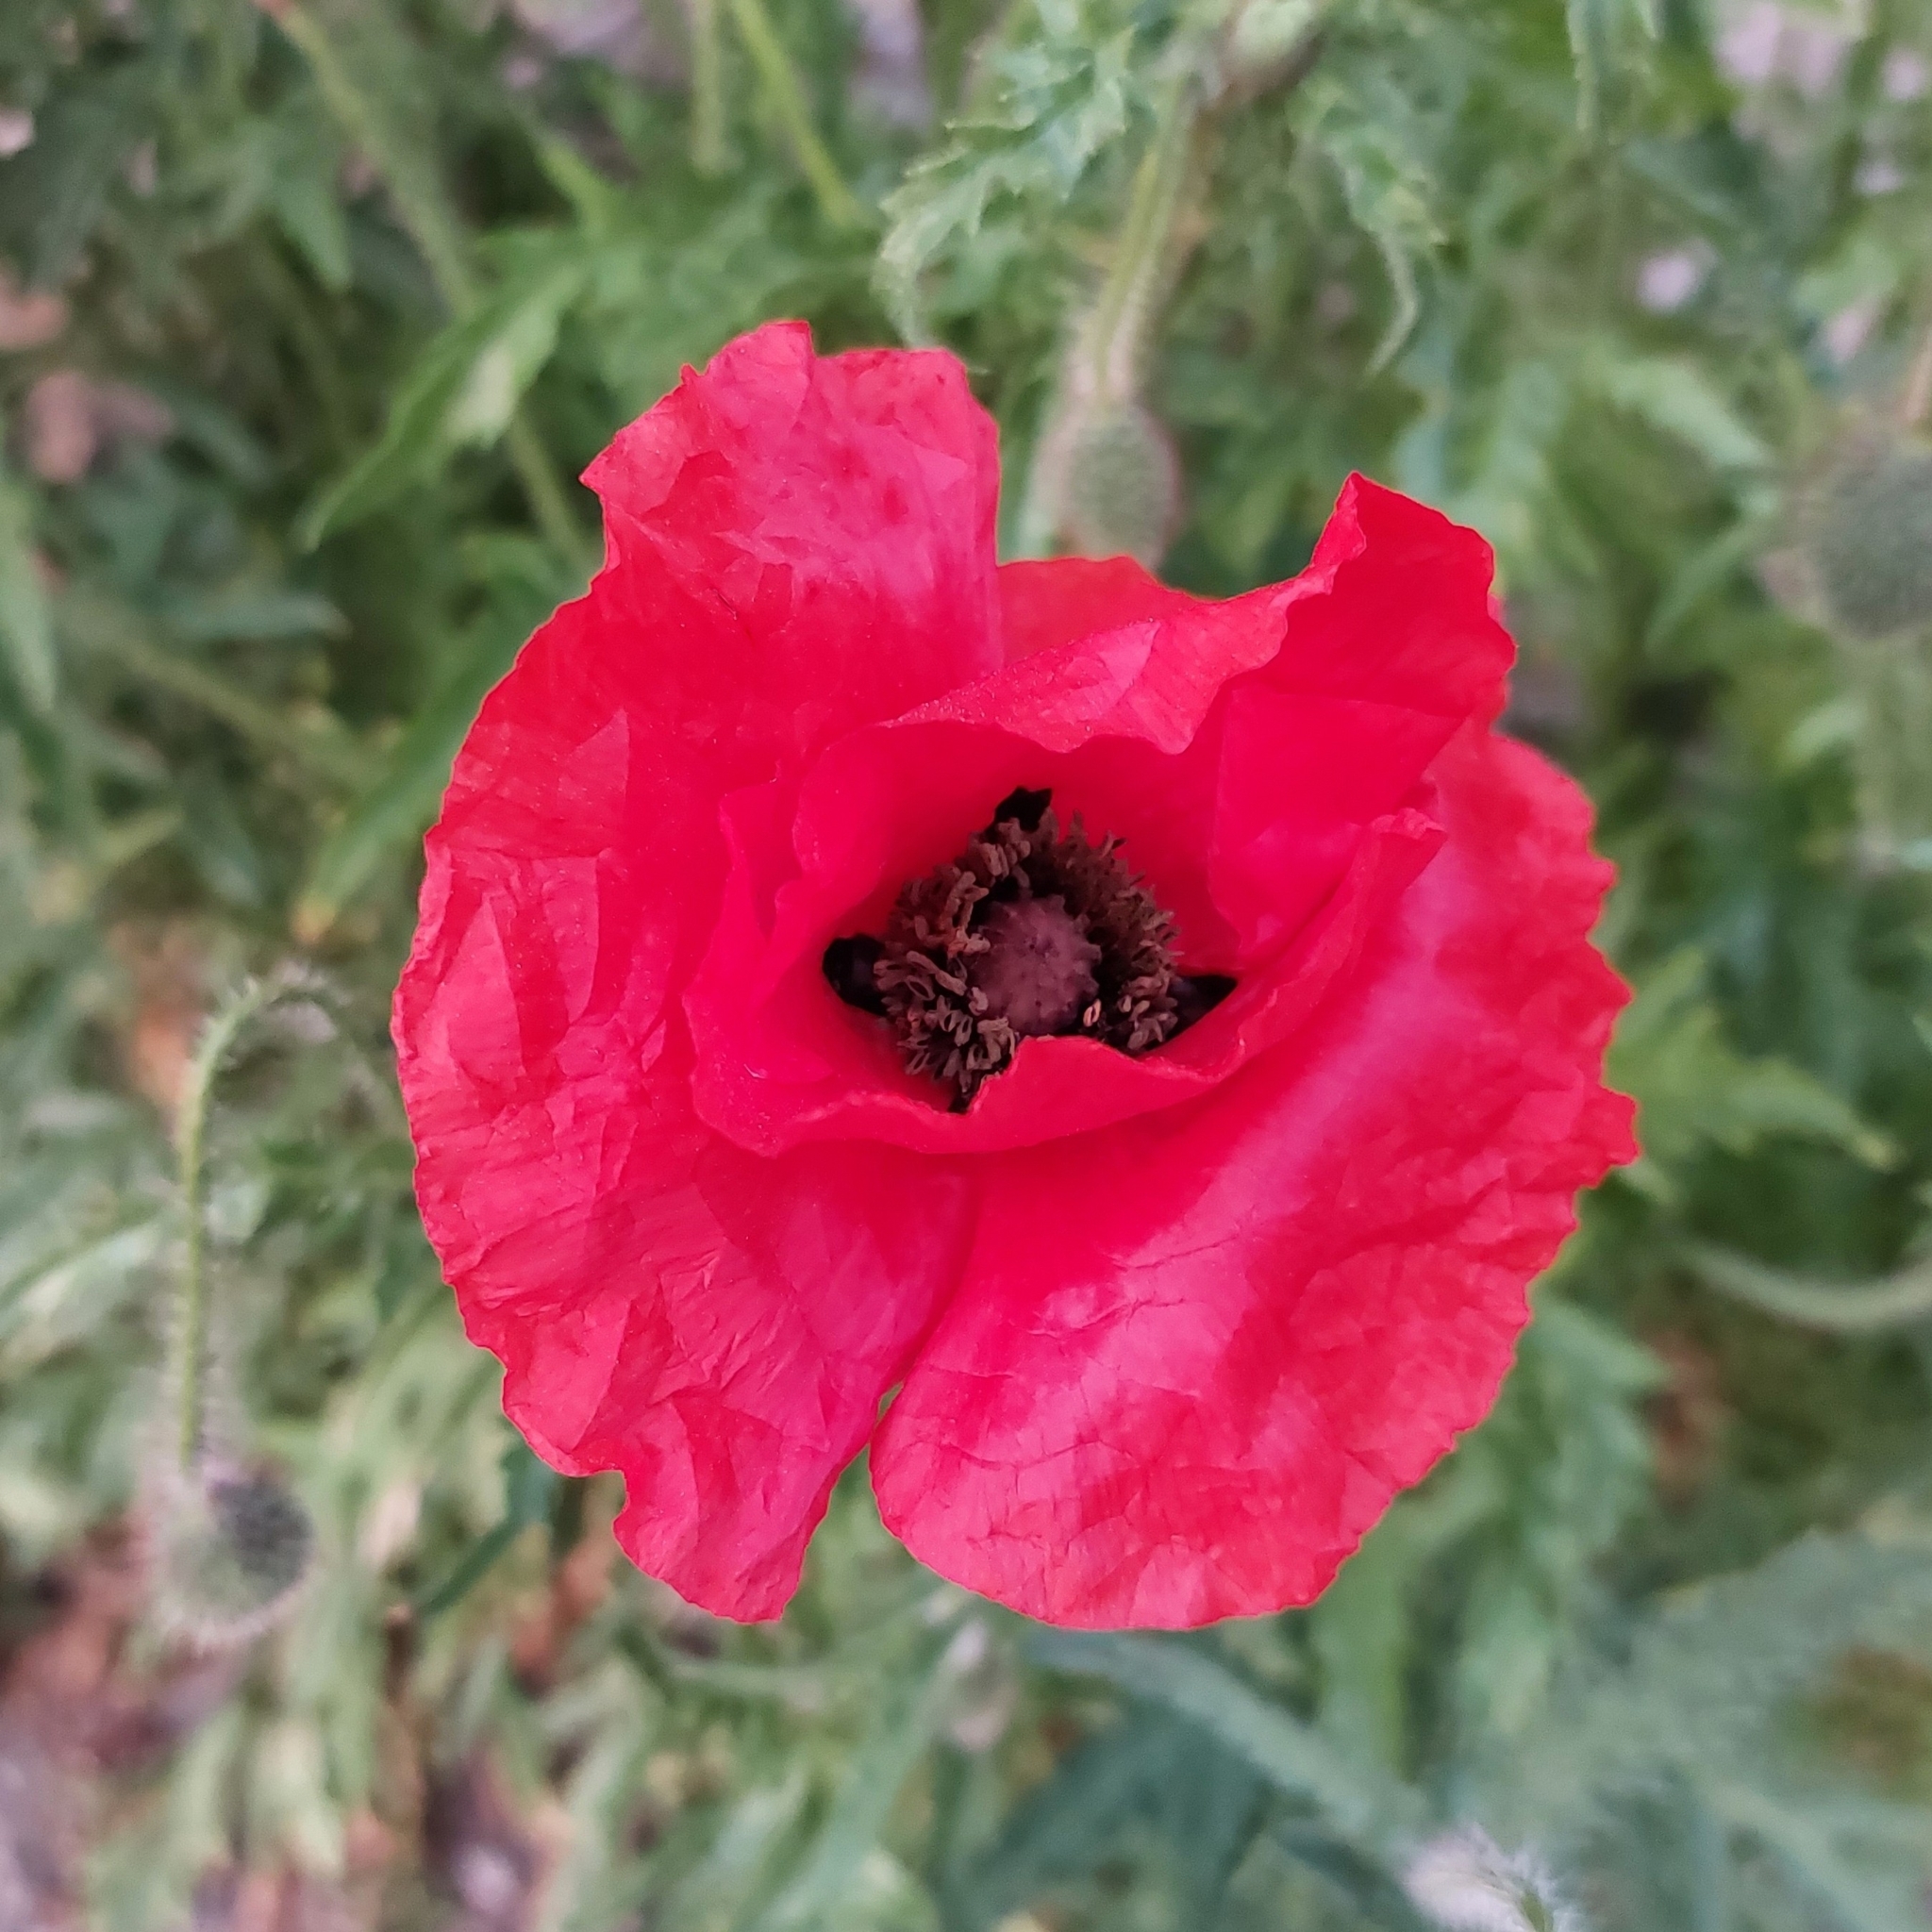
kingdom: Plantae
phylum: Tracheophyta
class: Magnoliopsida
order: Ranunculales
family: Papaveraceae
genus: Papaver
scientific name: Papaver rhoeas
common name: Corn poppy
